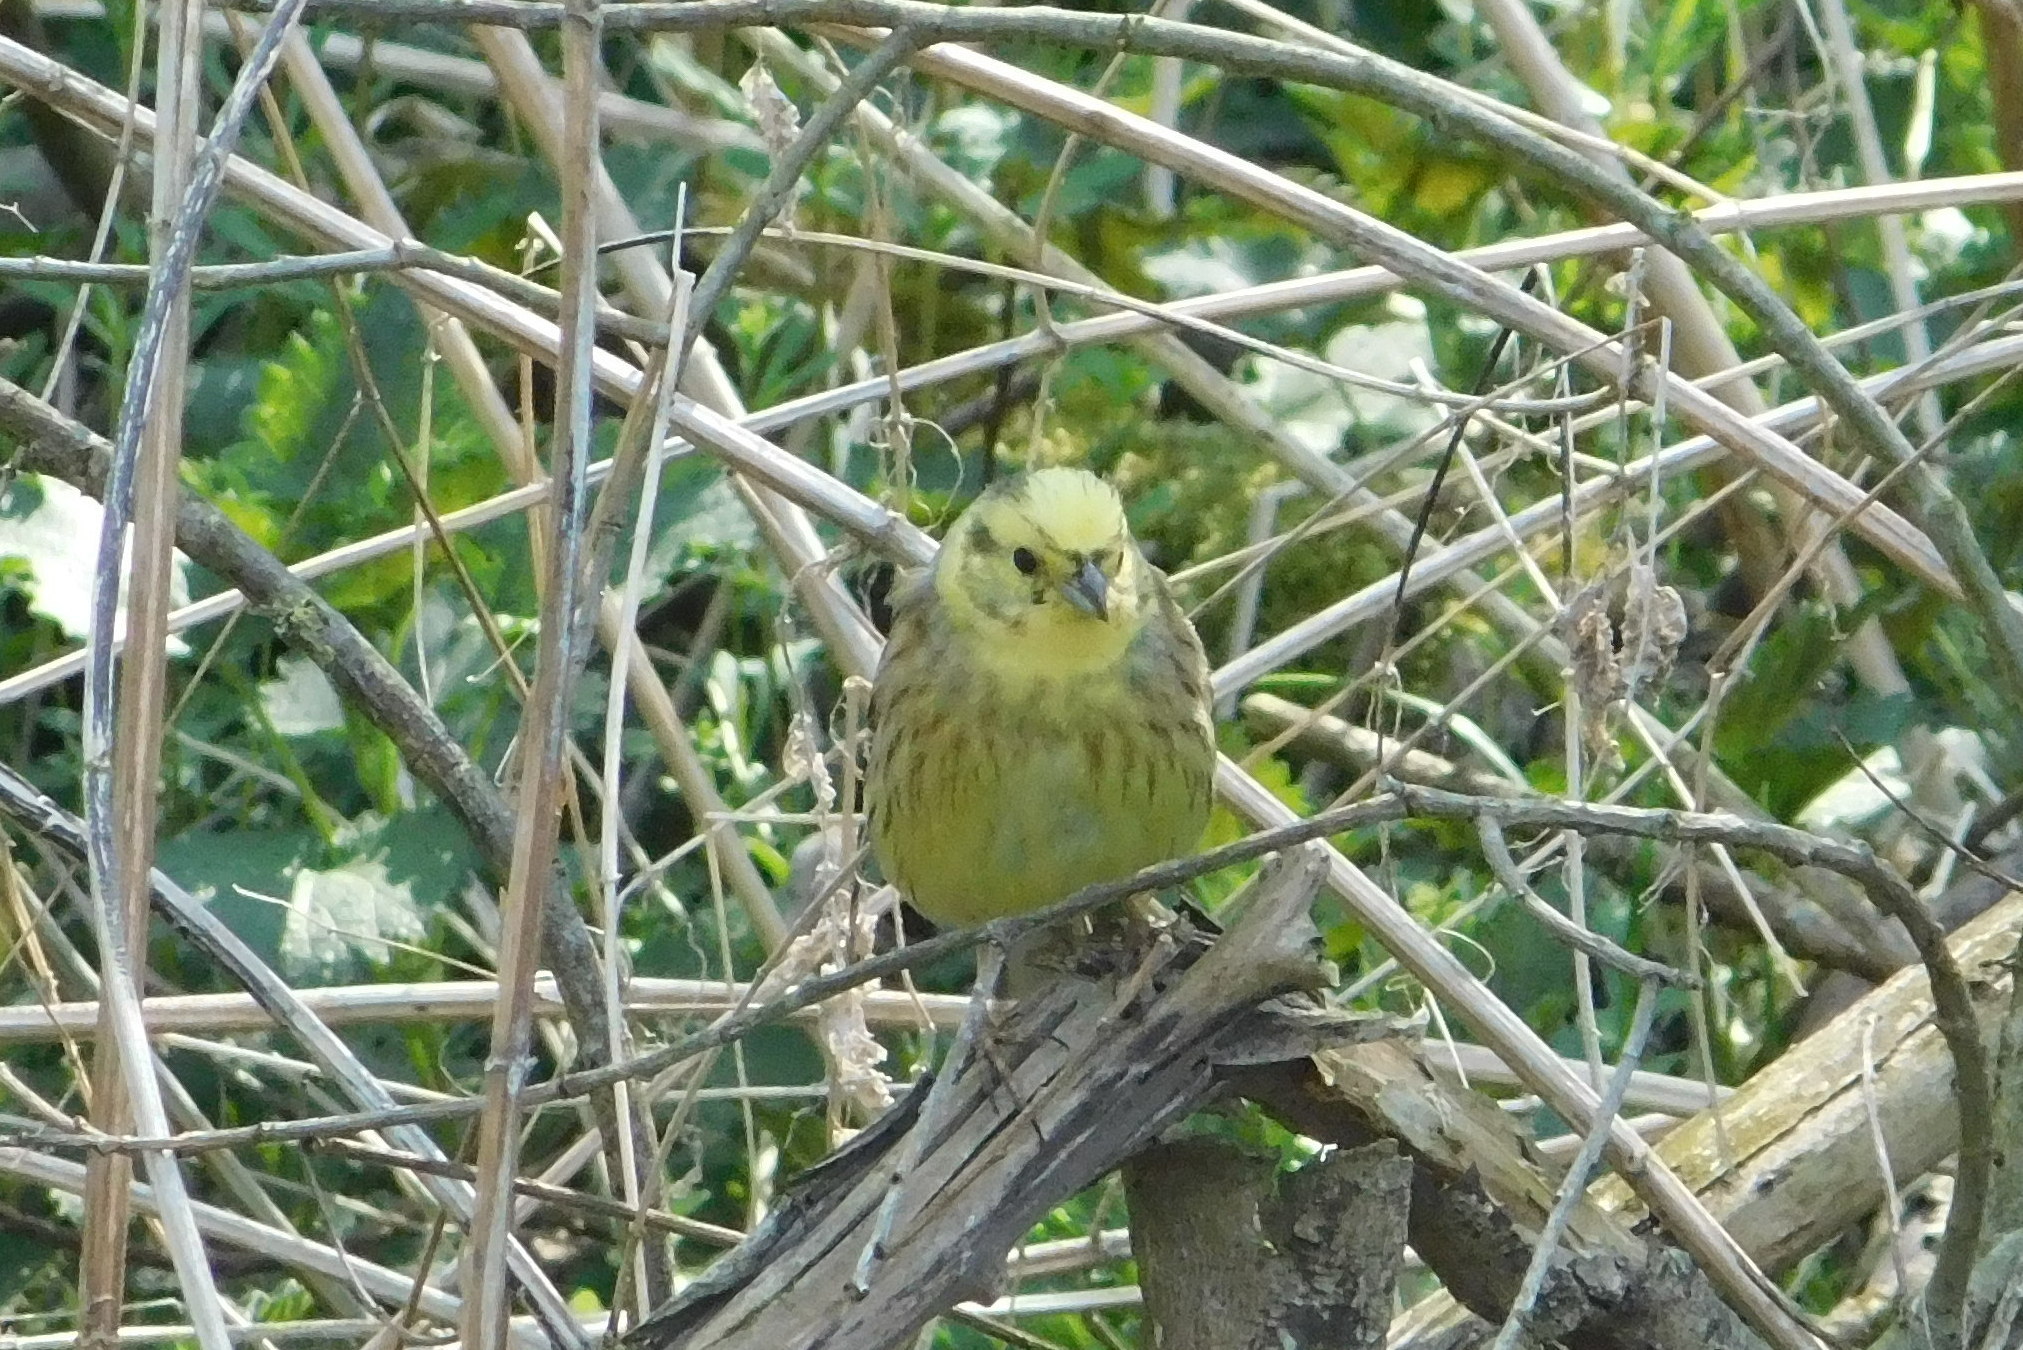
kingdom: Animalia
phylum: Chordata
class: Aves
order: Passeriformes
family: Emberizidae
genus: Emberiza
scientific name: Emberiza citrinella
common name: Yellowhammer
